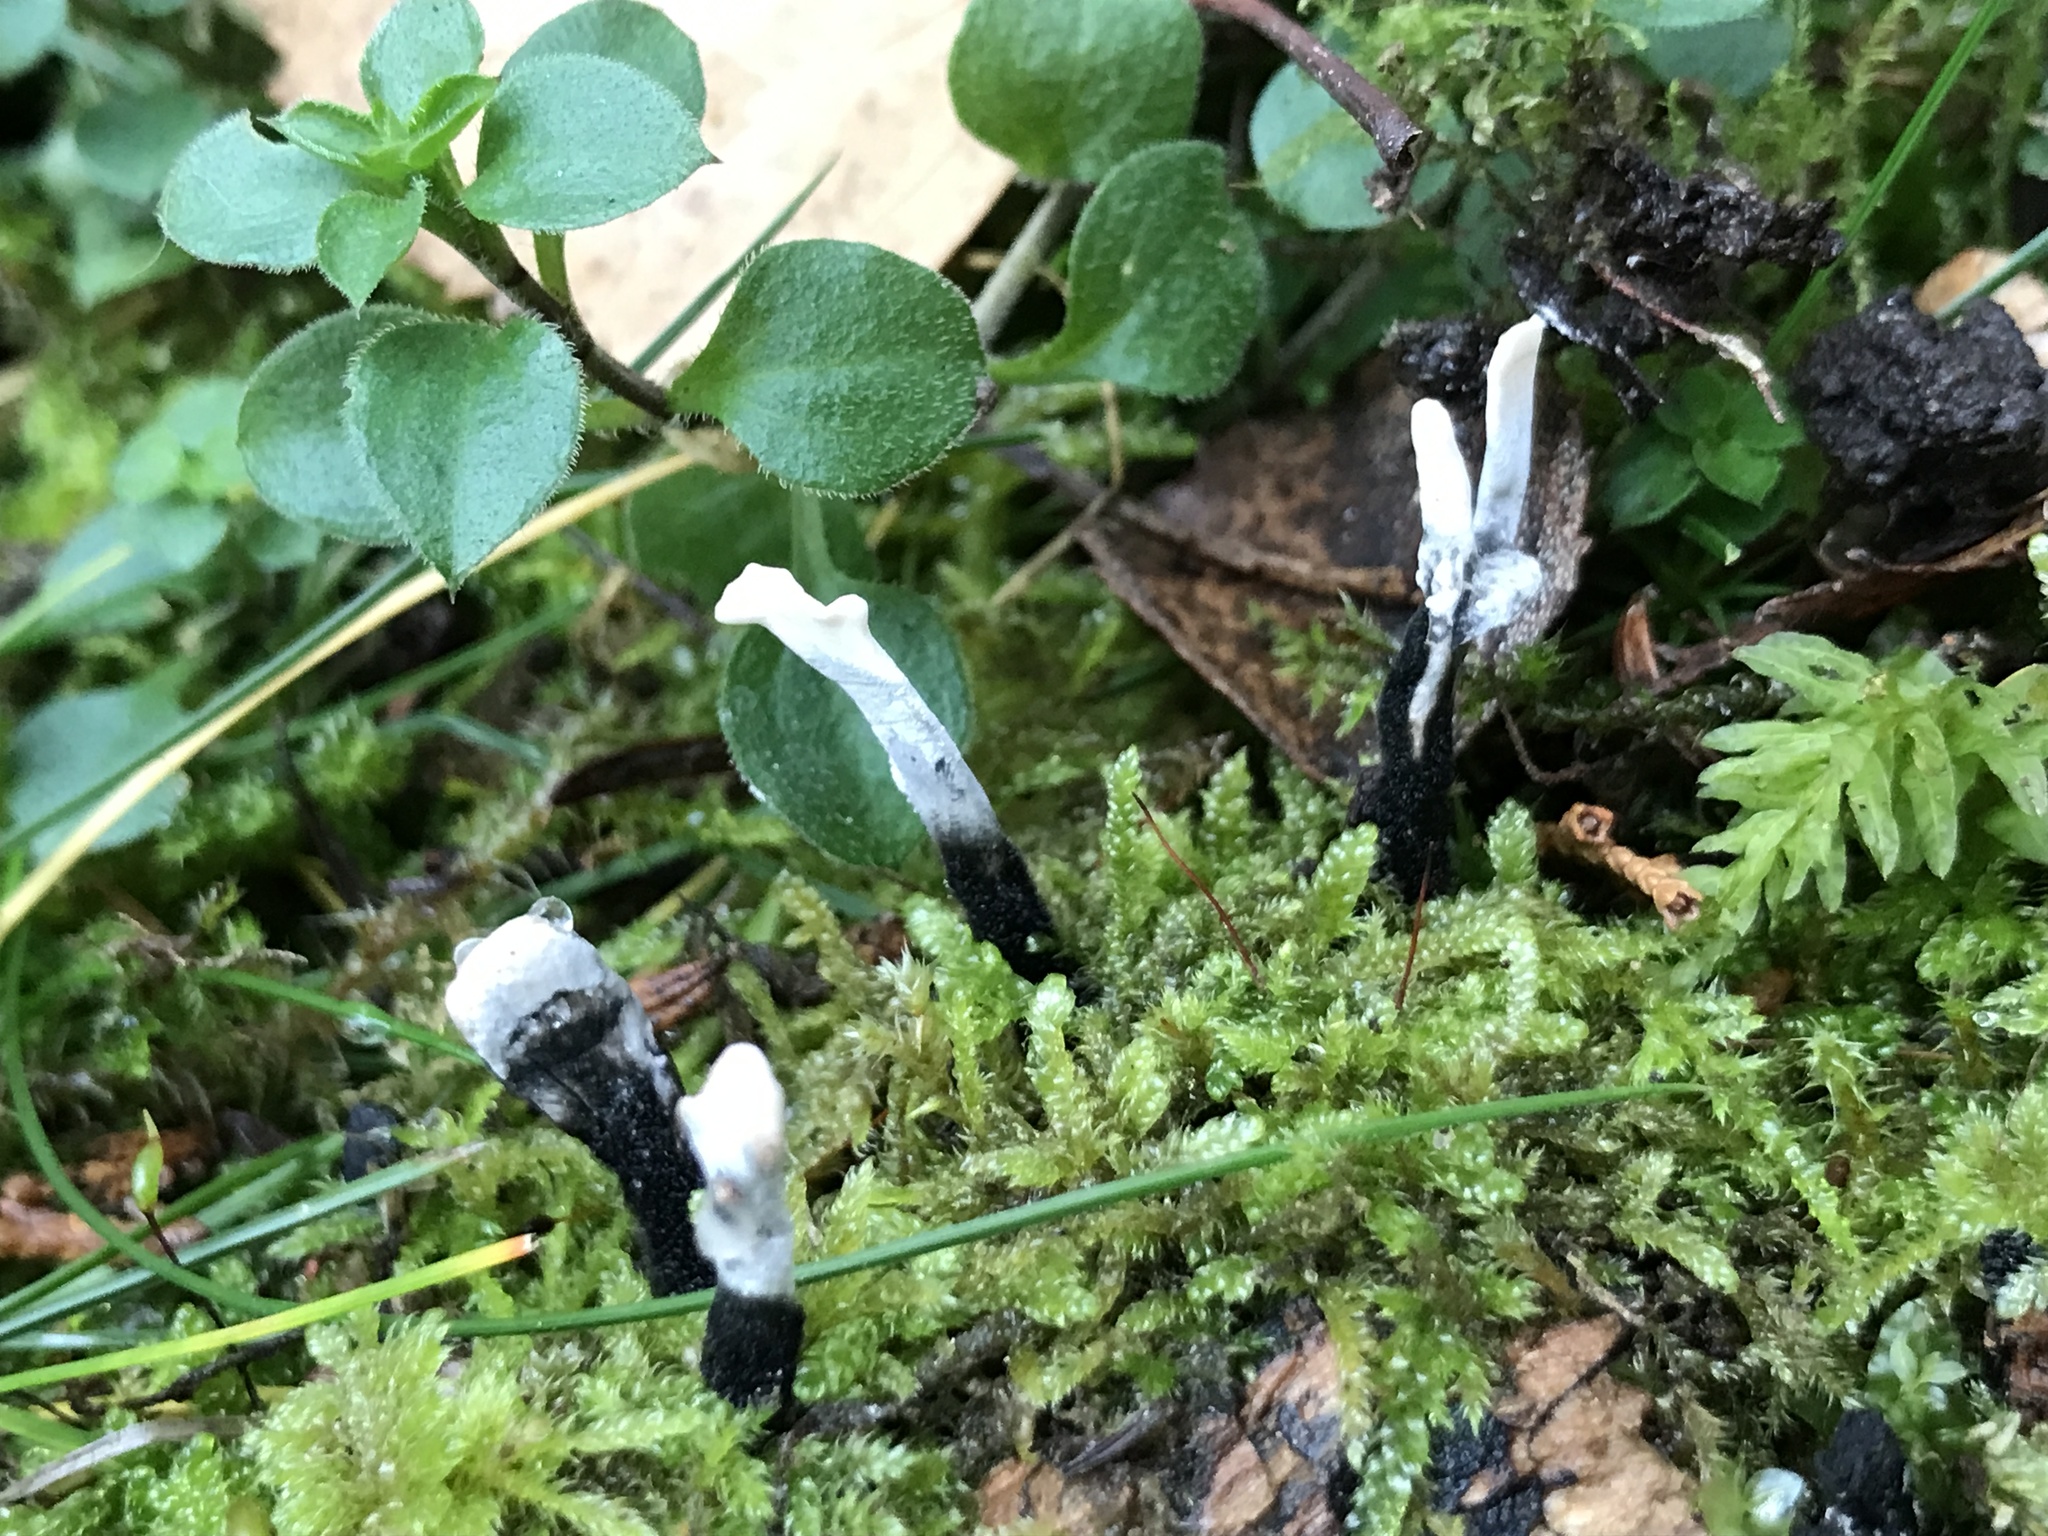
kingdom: Fungi
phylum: Ascomycota
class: Sordariomycetes
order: Xylariales
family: Xylariaceae
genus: Xylaria
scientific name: Xylaria hypoxylon
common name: Candle-snuff fungus
